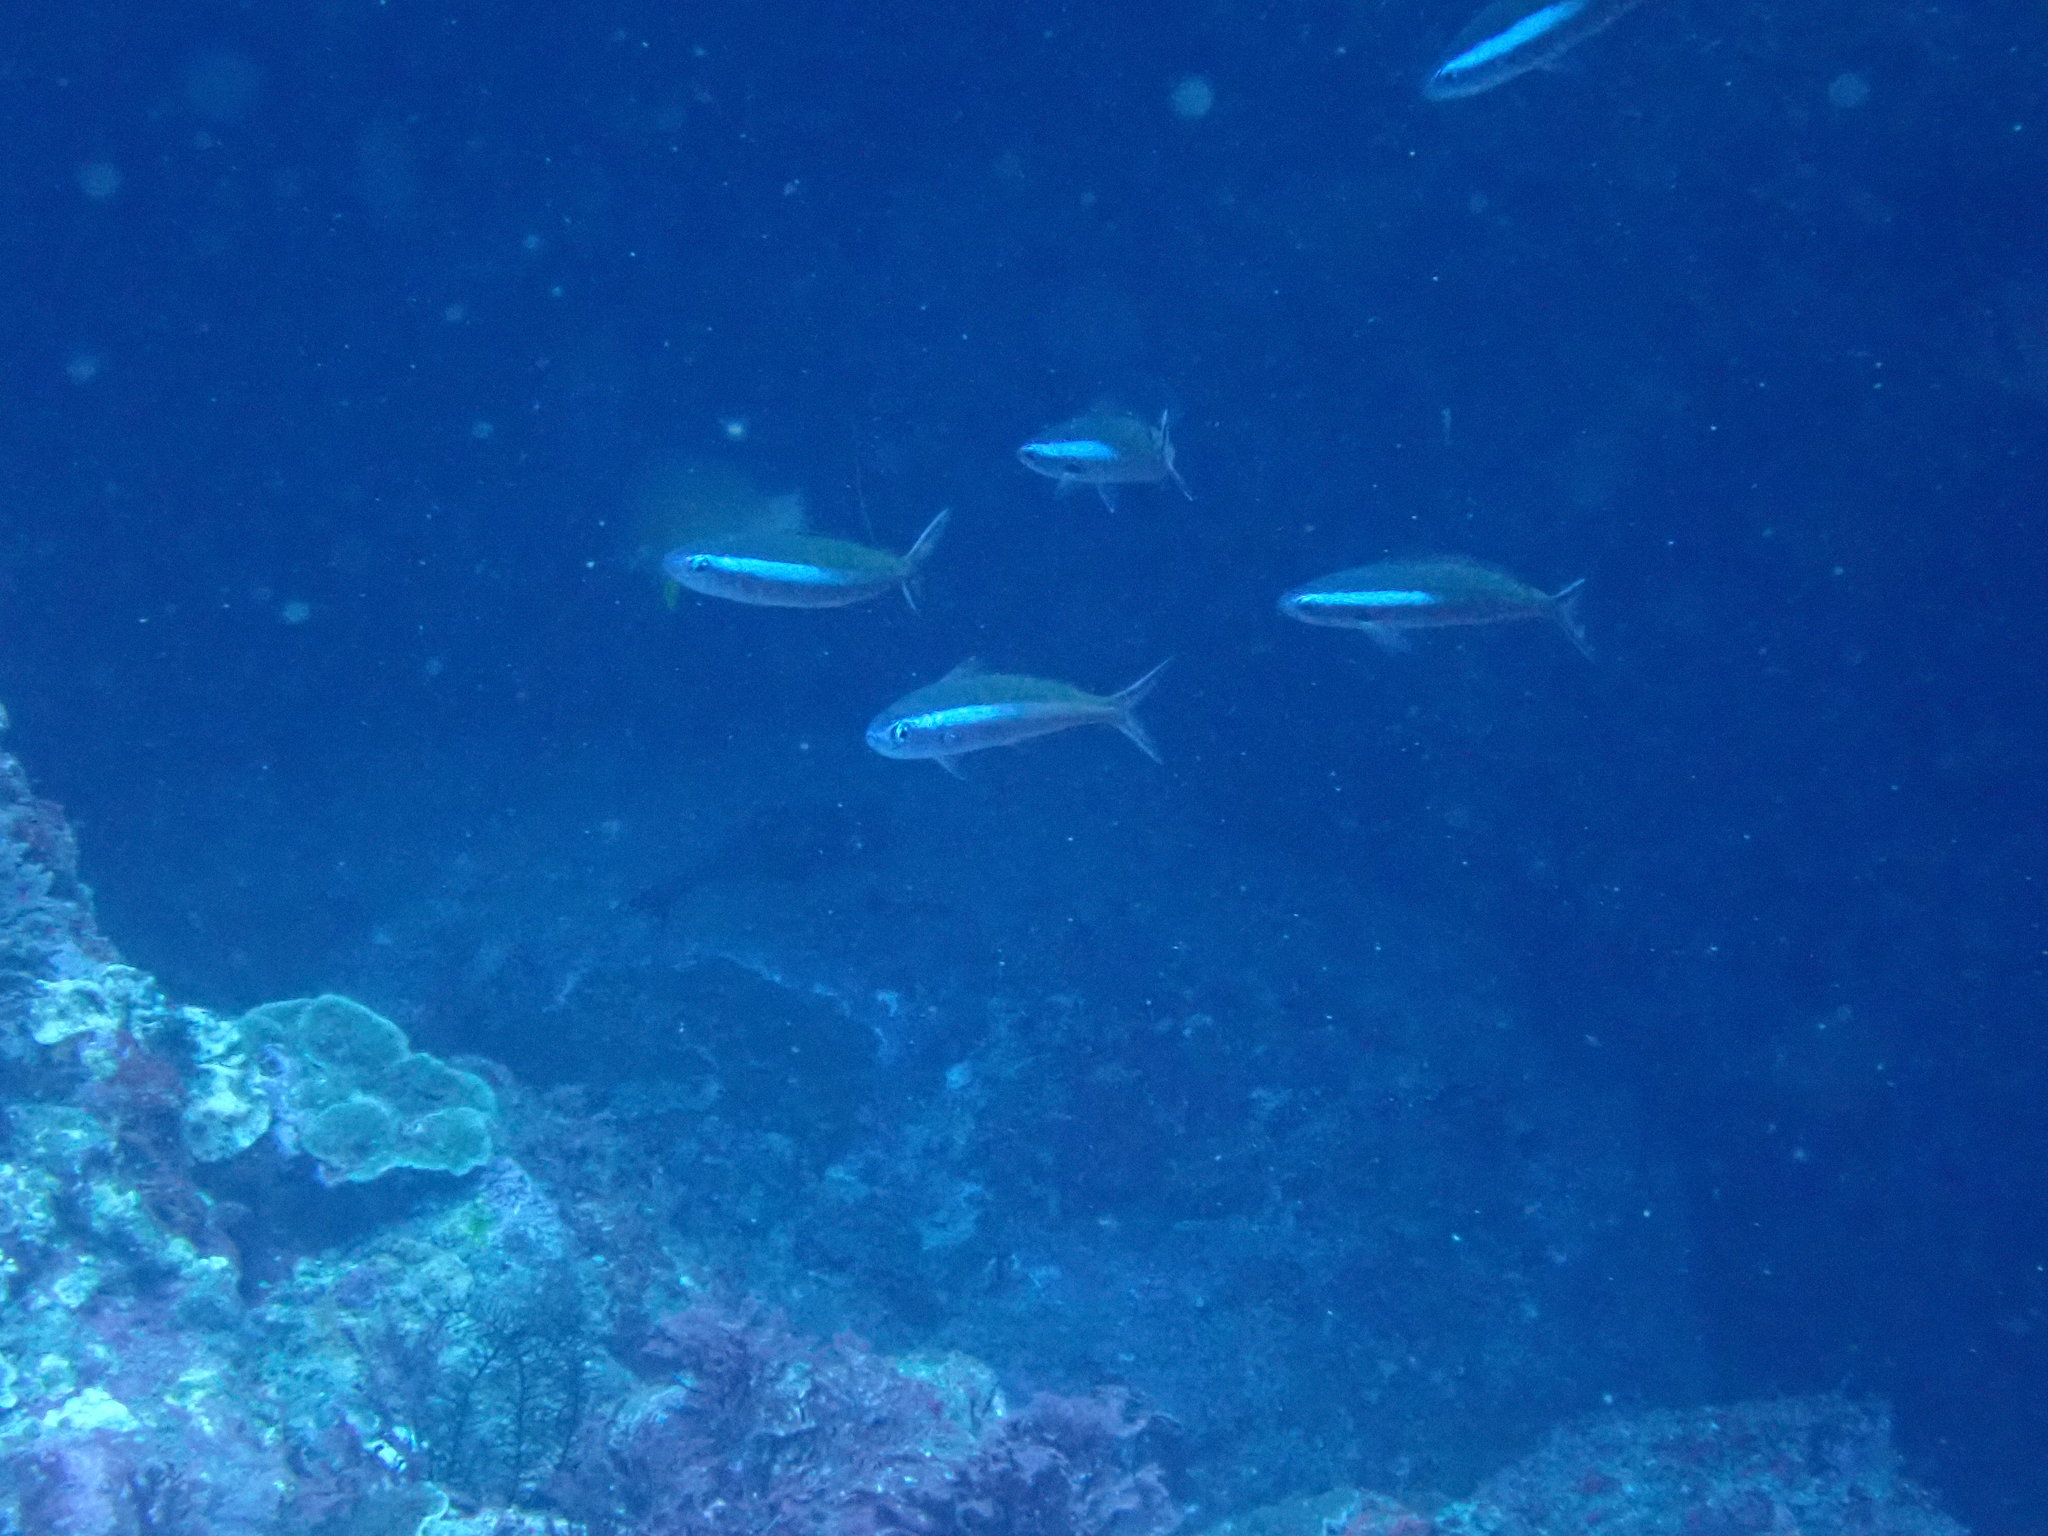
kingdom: Animalia
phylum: Chordata
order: Perciformes
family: Caesionidae
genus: Pterocaesio
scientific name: Pterocaesio tile
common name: Dark-banded fusilier
